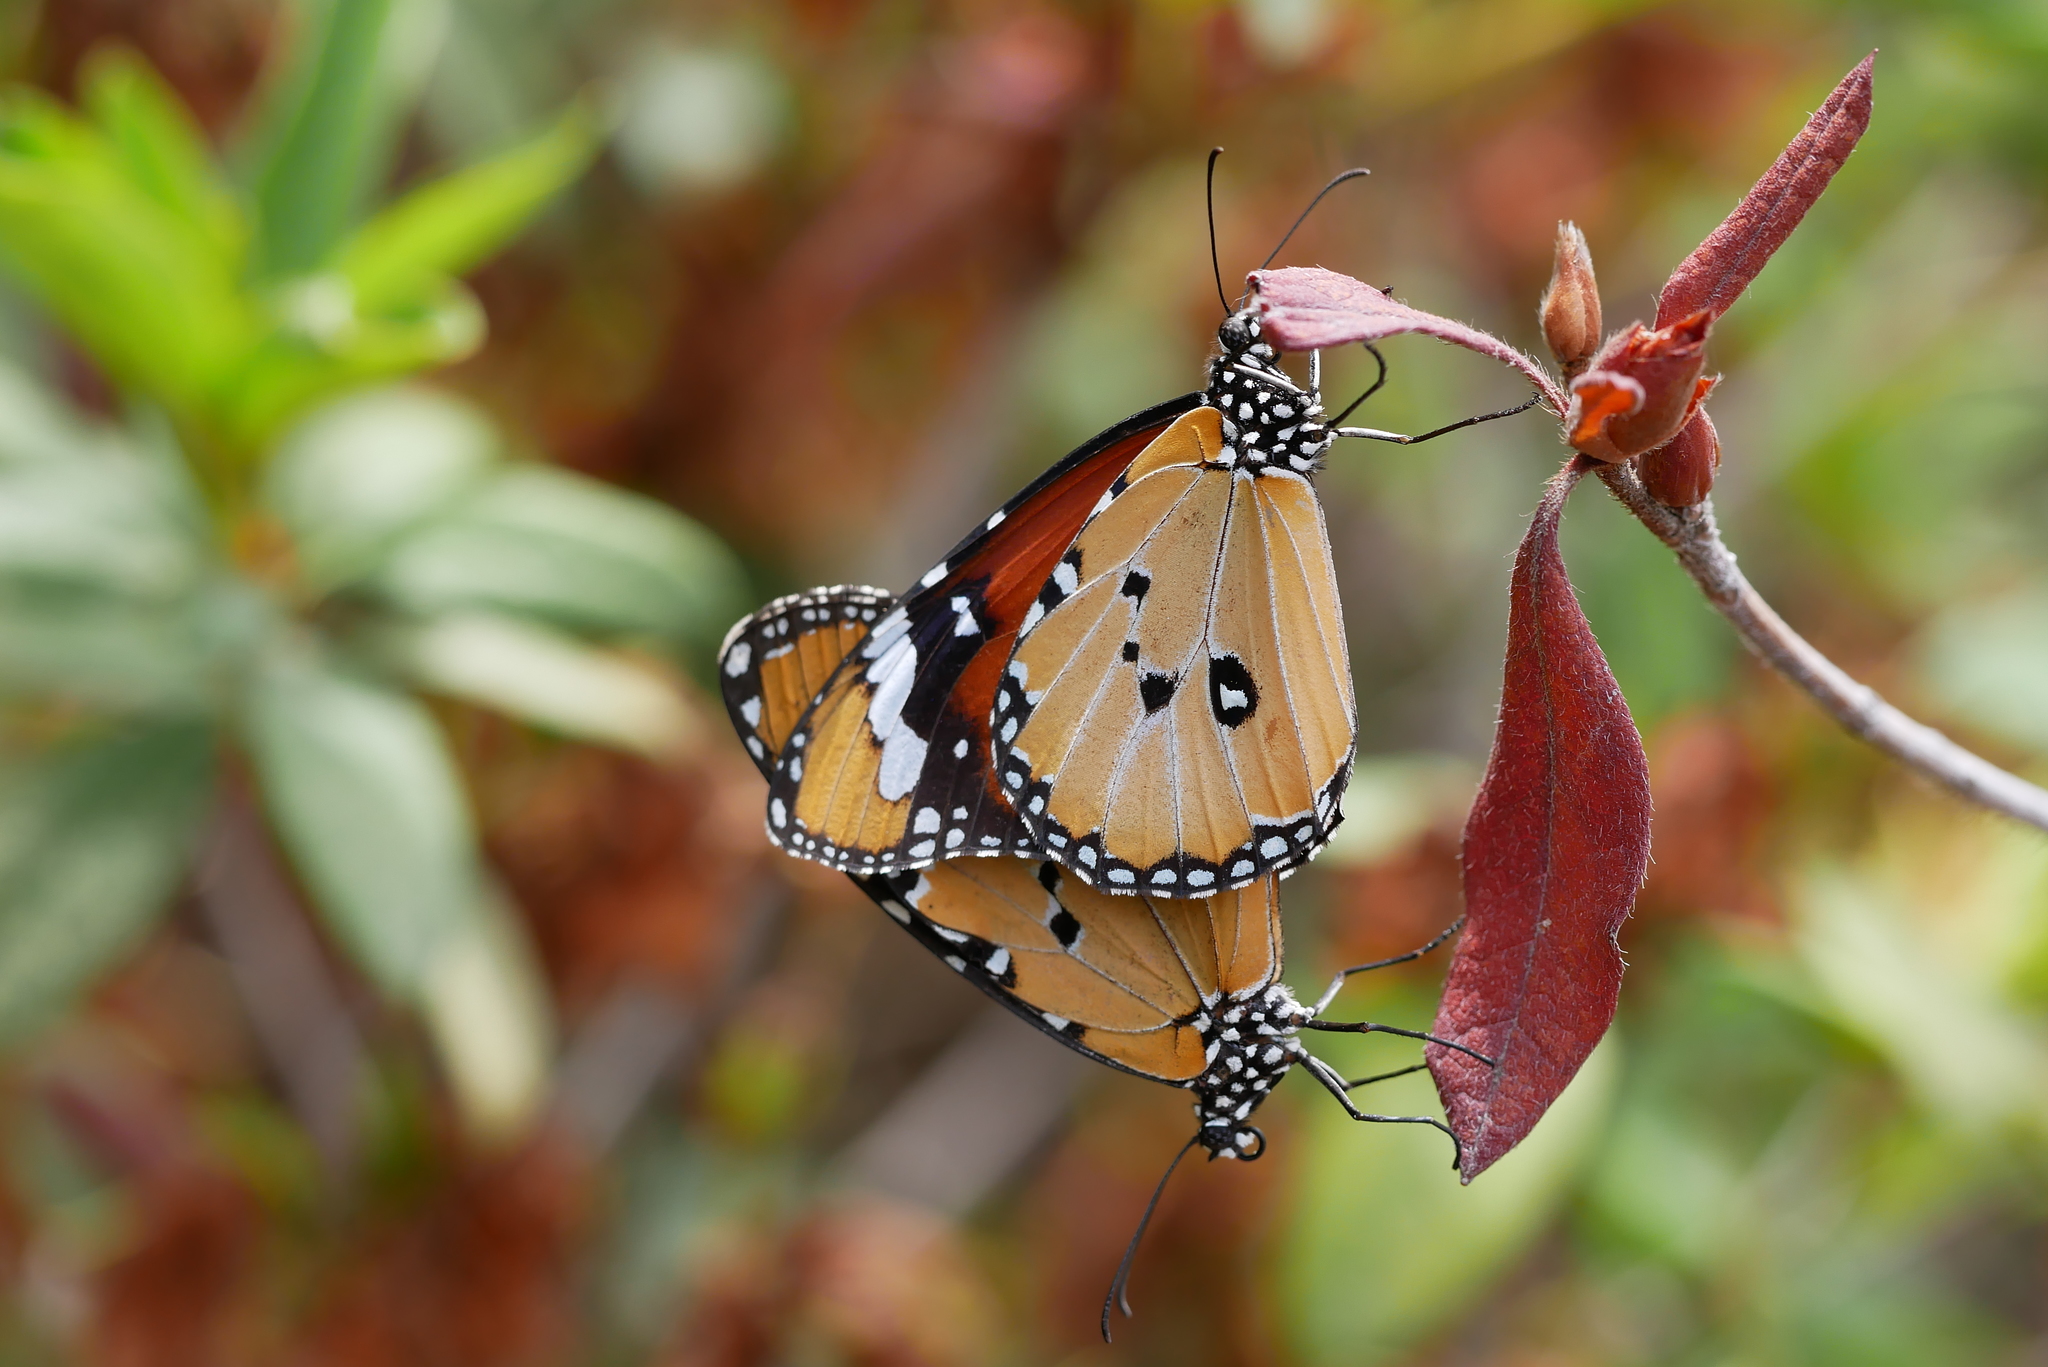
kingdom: Animalia
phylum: Arthropoda
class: Insecta
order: Lepidoptera
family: Nymphalidae
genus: Danaus
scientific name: Danaus chrysippus
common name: Plain tiger
